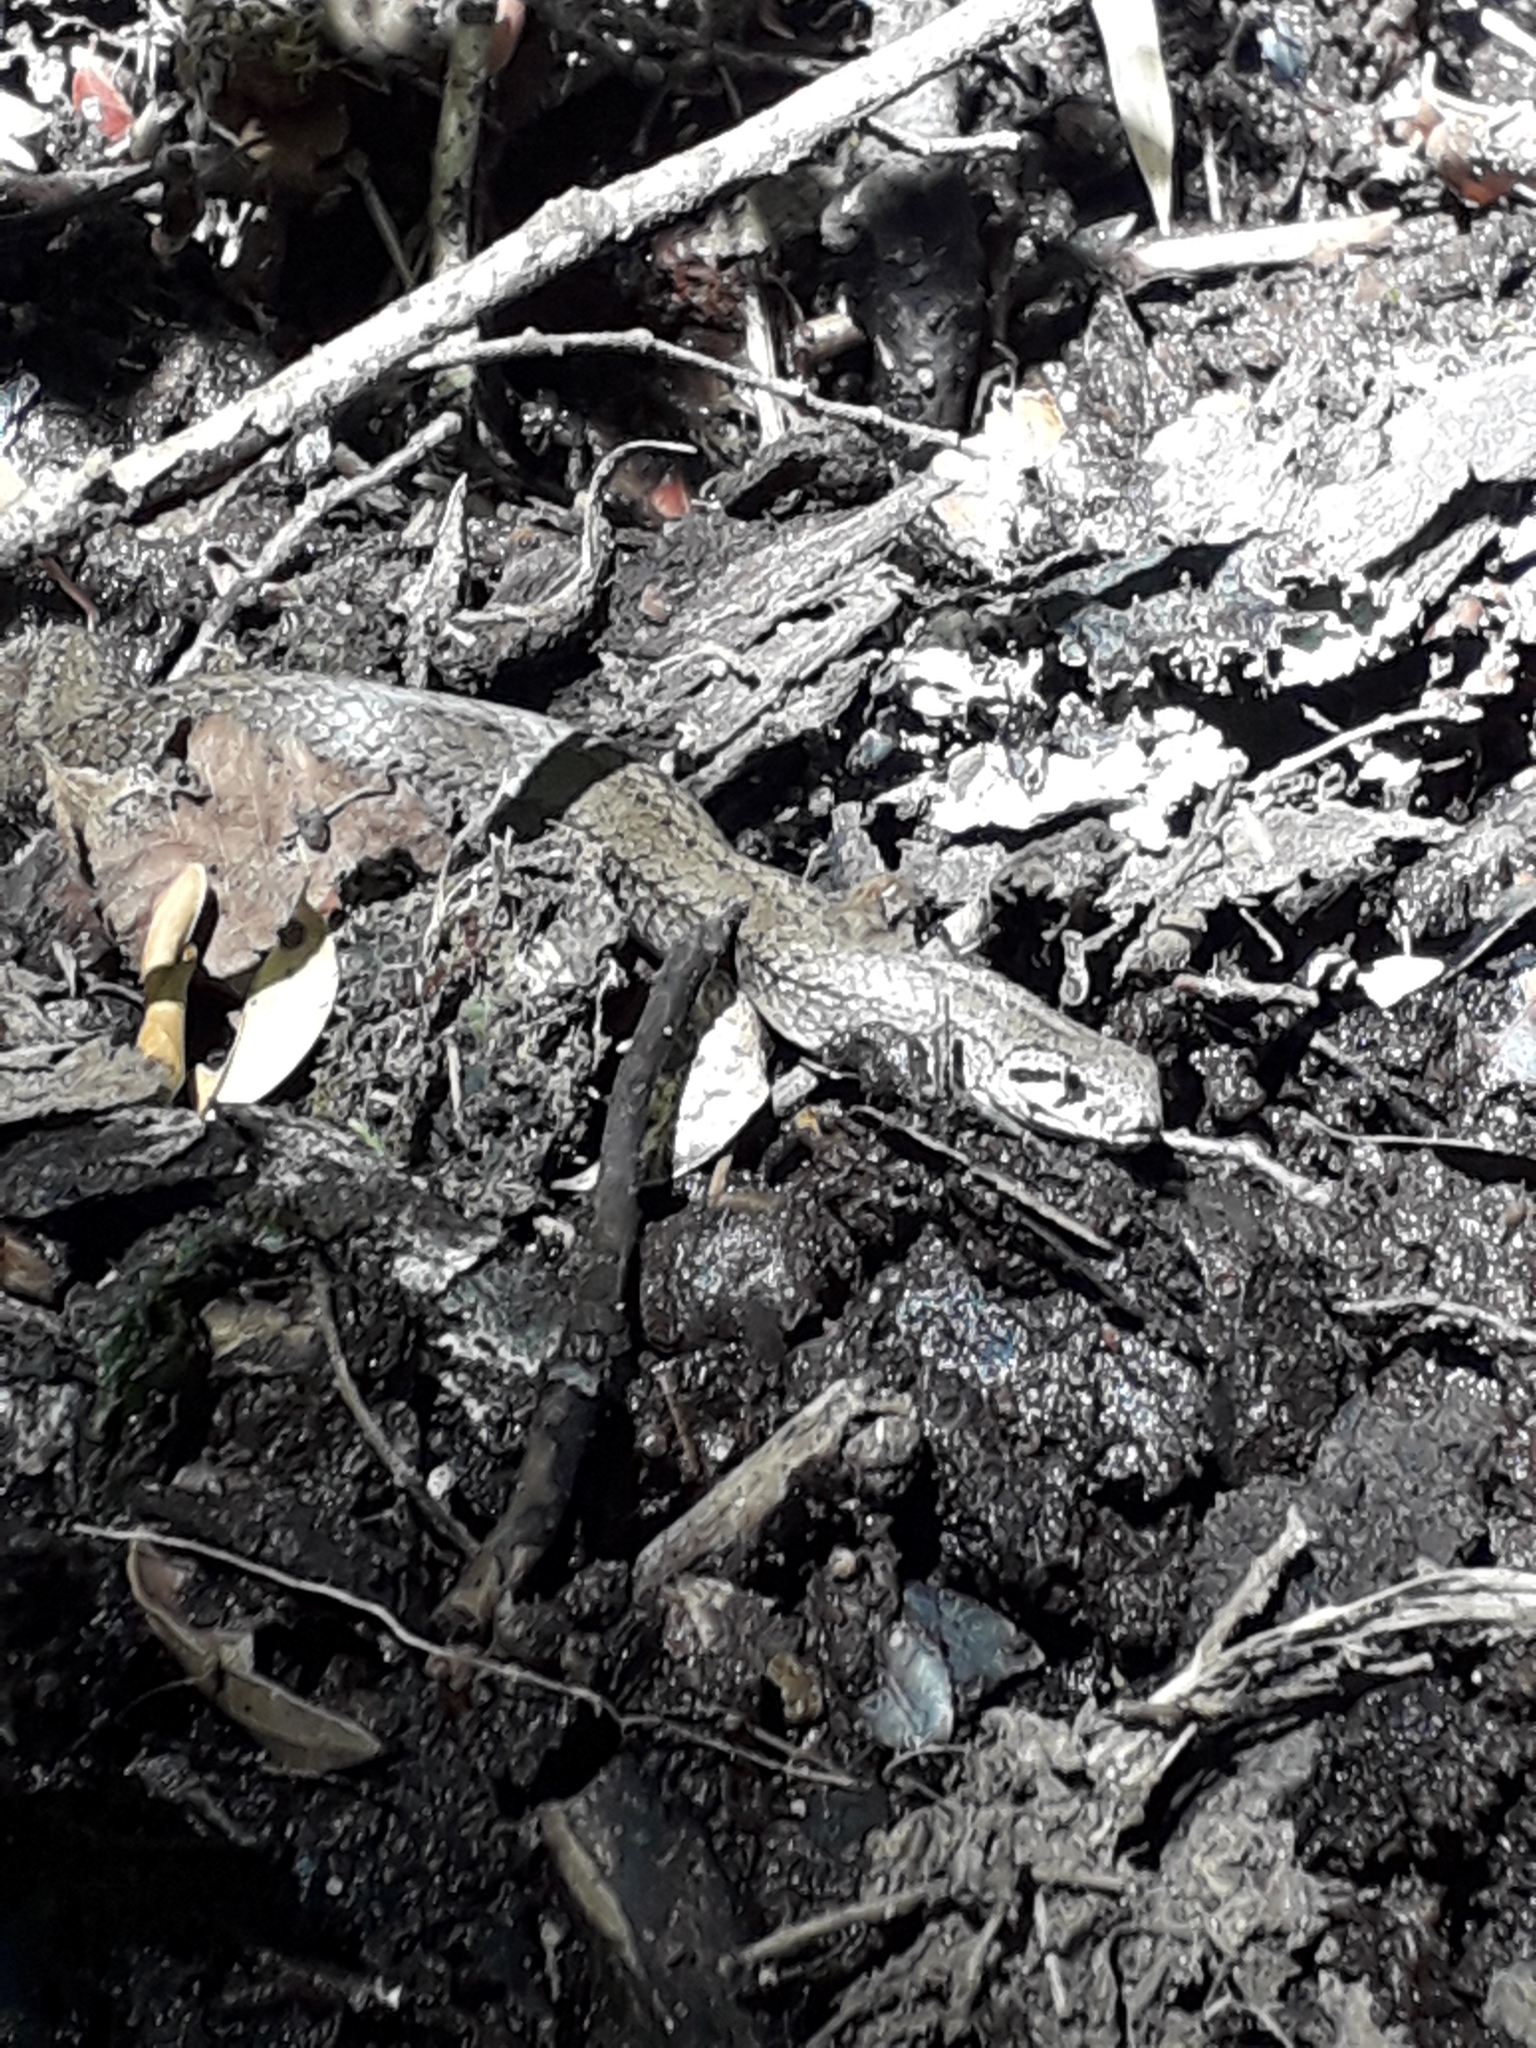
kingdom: Animalia
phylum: Chordata
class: Squamata
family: Colubridae
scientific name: Colubridae
